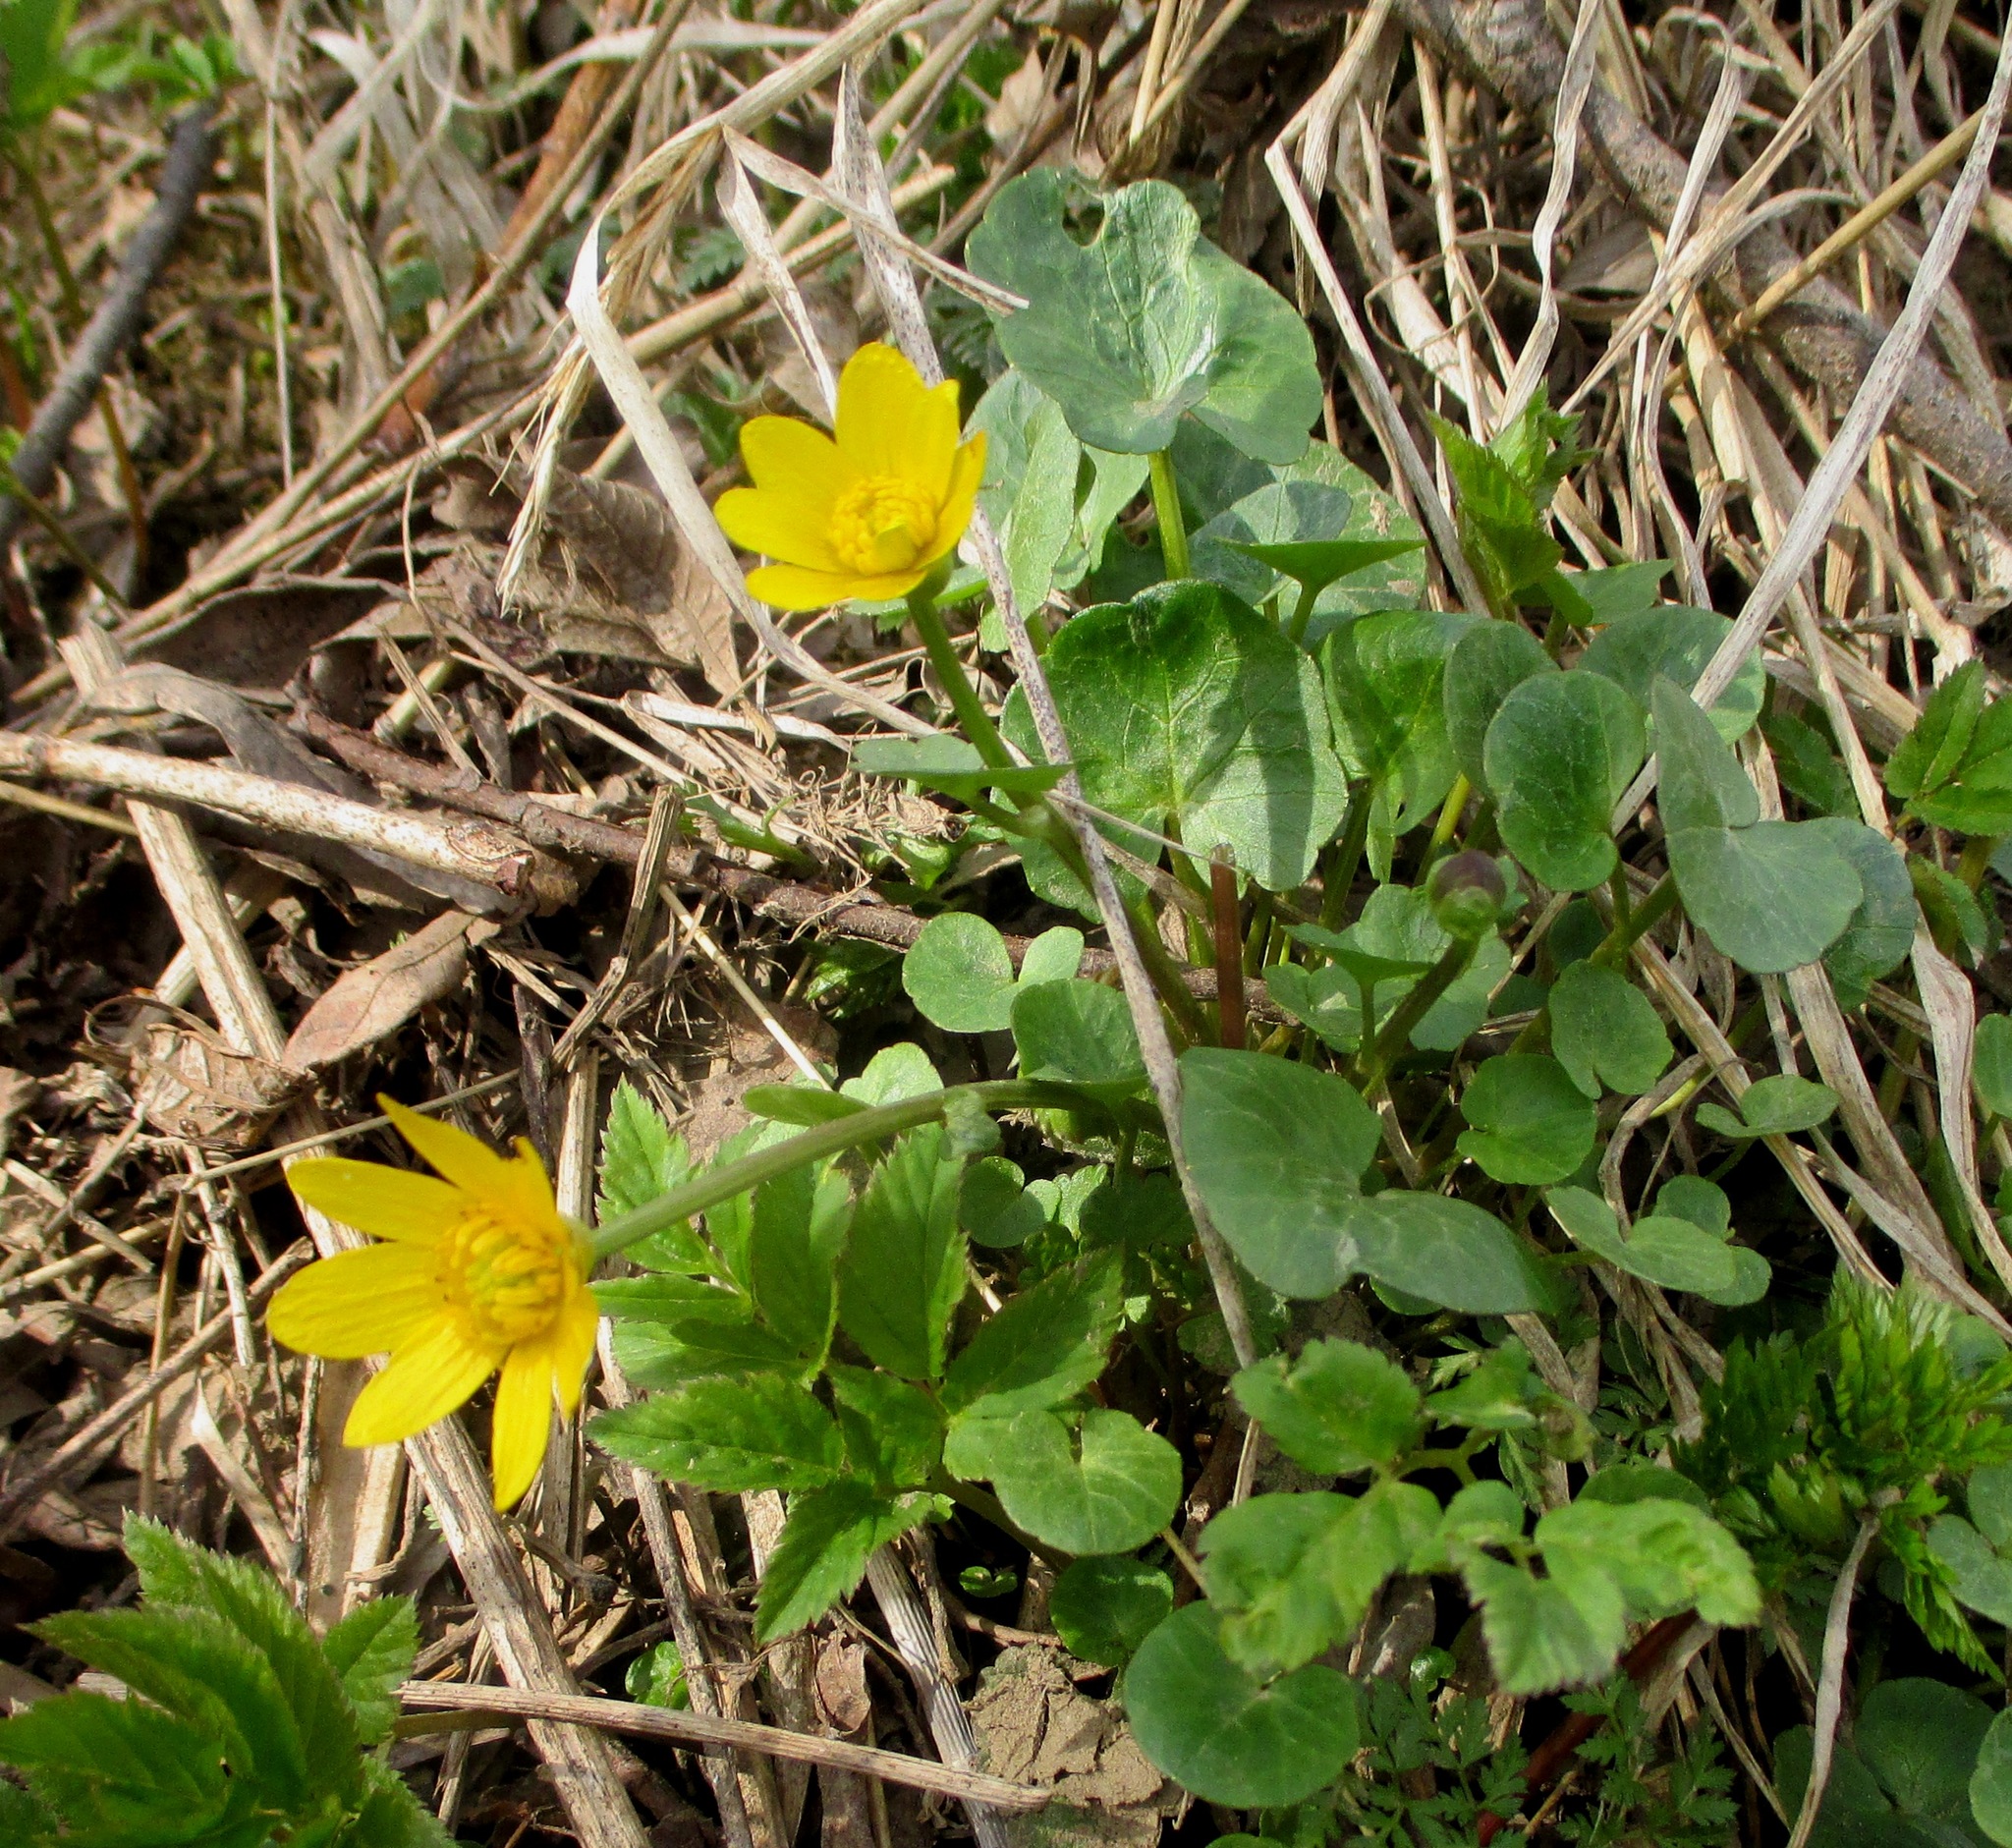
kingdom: Plantae
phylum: Tracheophyta
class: Magnoliopsida
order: Ranunculales
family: Ranunculaceae
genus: Ficaria
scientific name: Ficaria verna
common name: Lesser celandine
